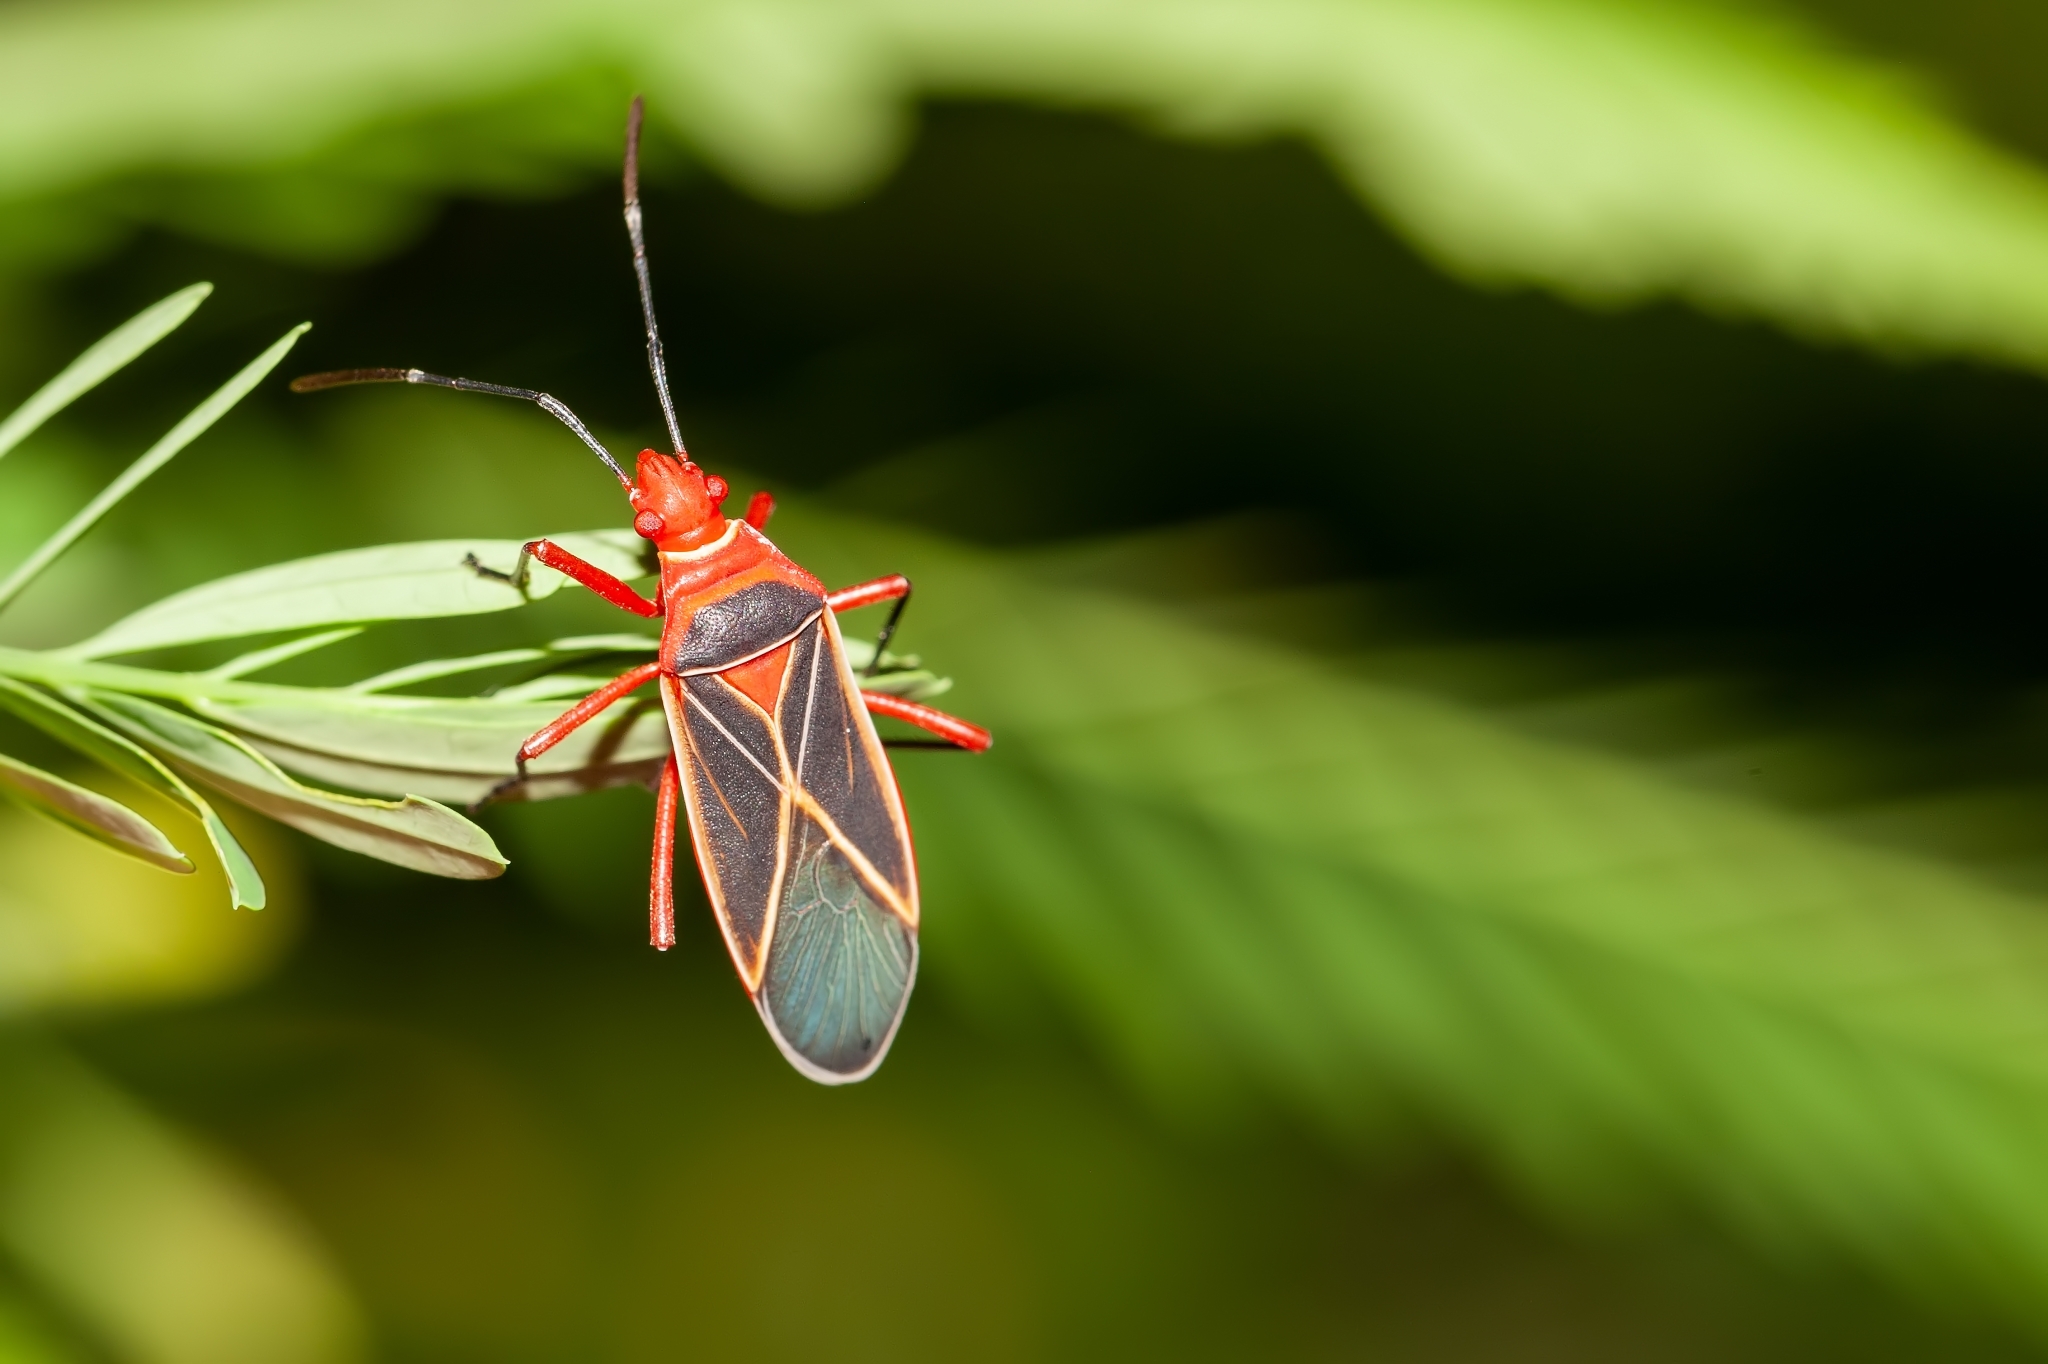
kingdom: Animalia
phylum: Arthropoda
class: Insecta
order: Hemiptera
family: Pyrrhocoridae
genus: Dysdercus
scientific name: Dysdercus suturellus
